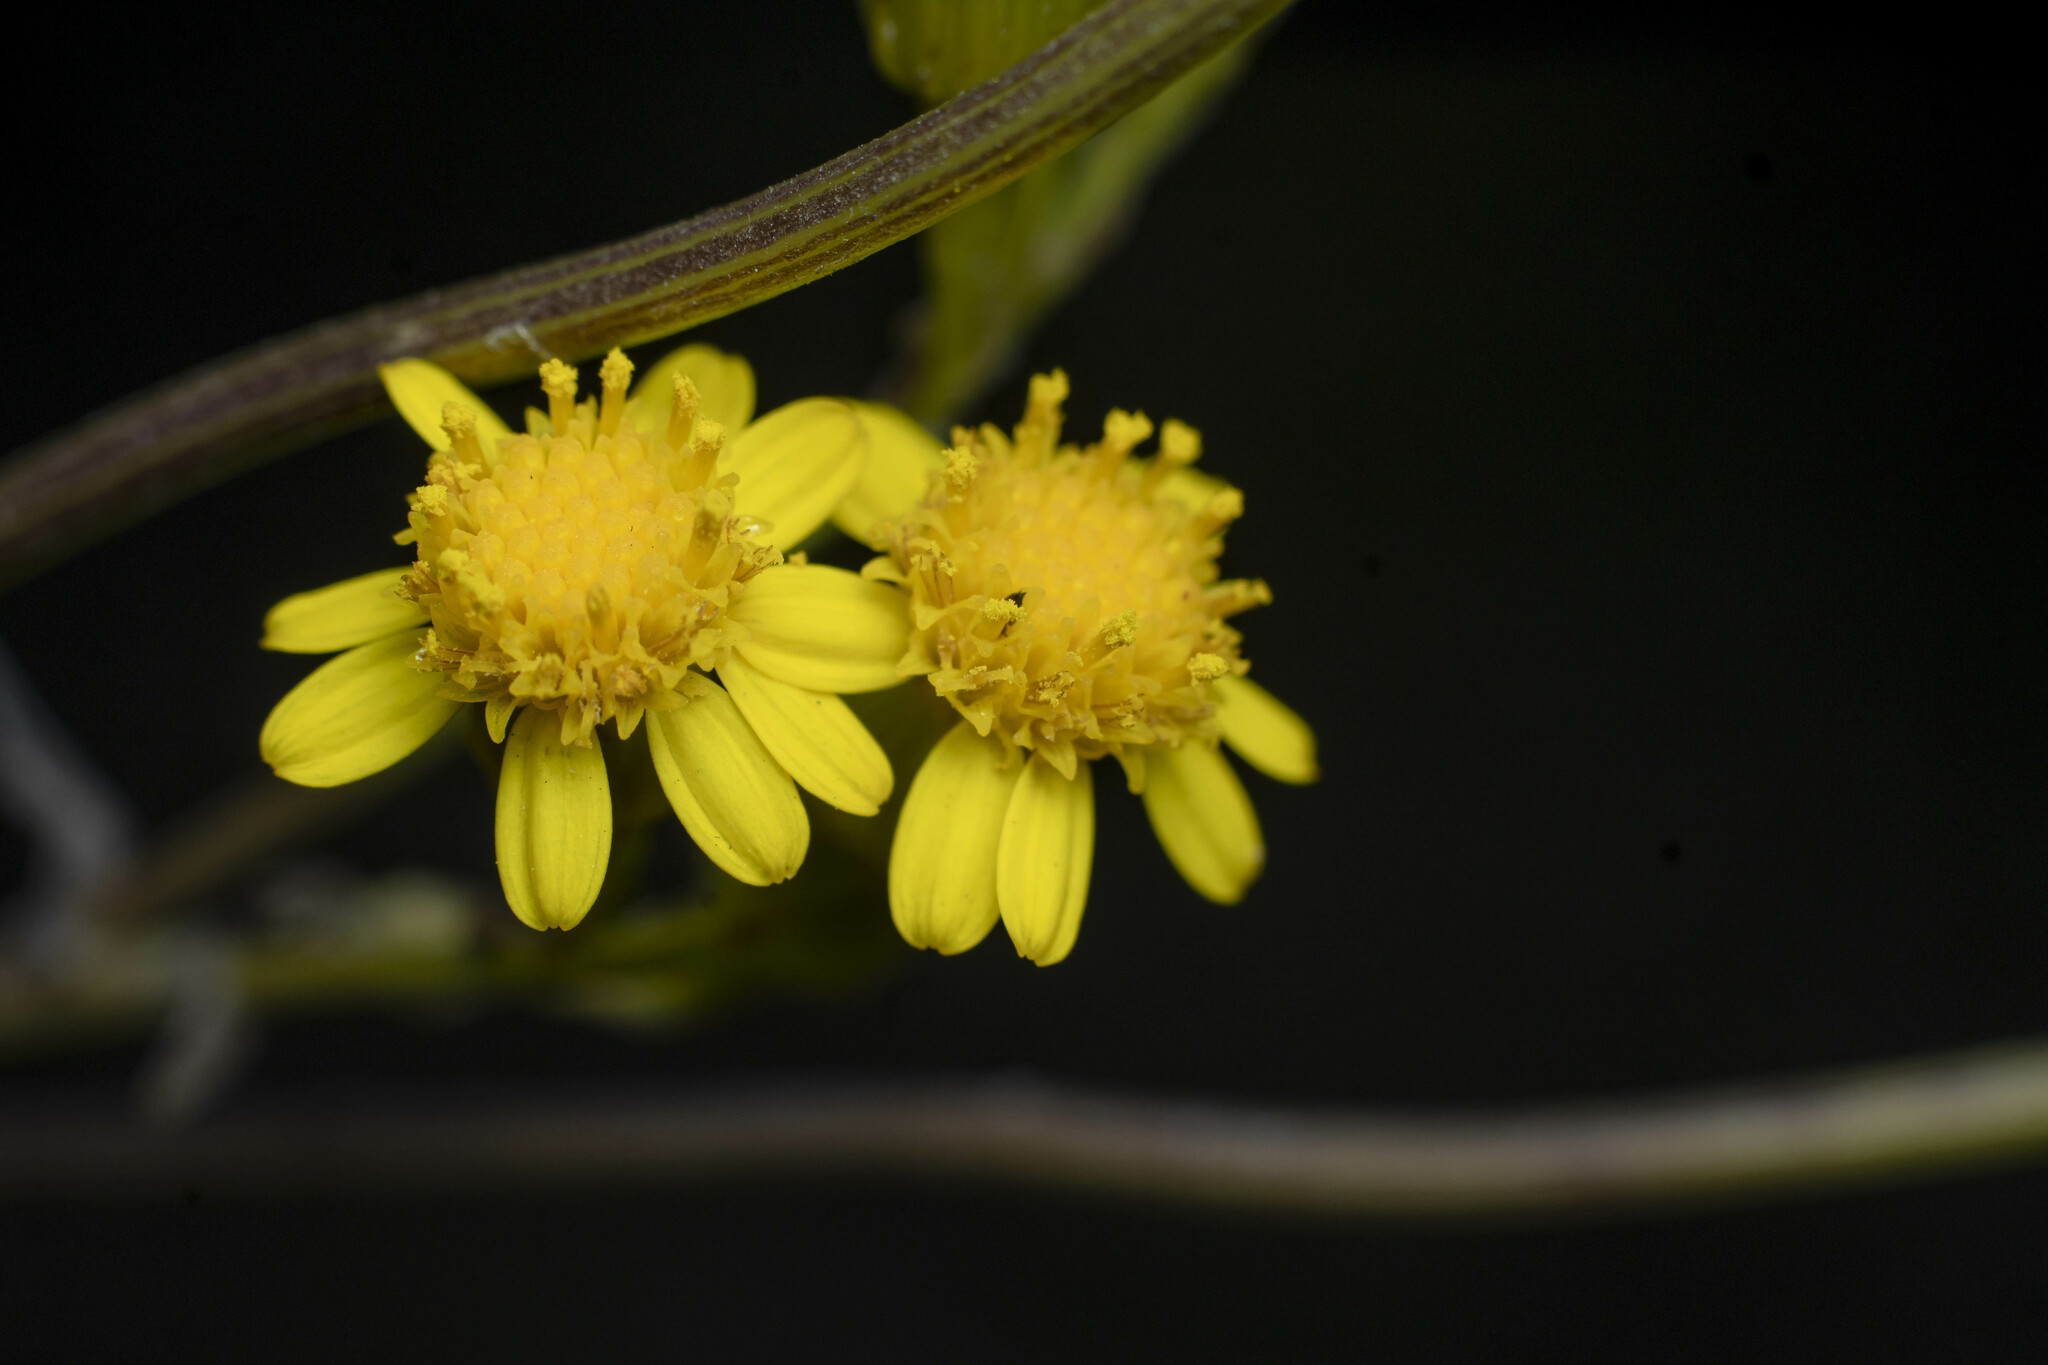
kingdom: Plantae
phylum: Tracheophyta
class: Magnoliopsida
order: Asterales
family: Asteraceae
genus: Senecio
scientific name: Senecio linearifolius
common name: Fireweed groundsel
